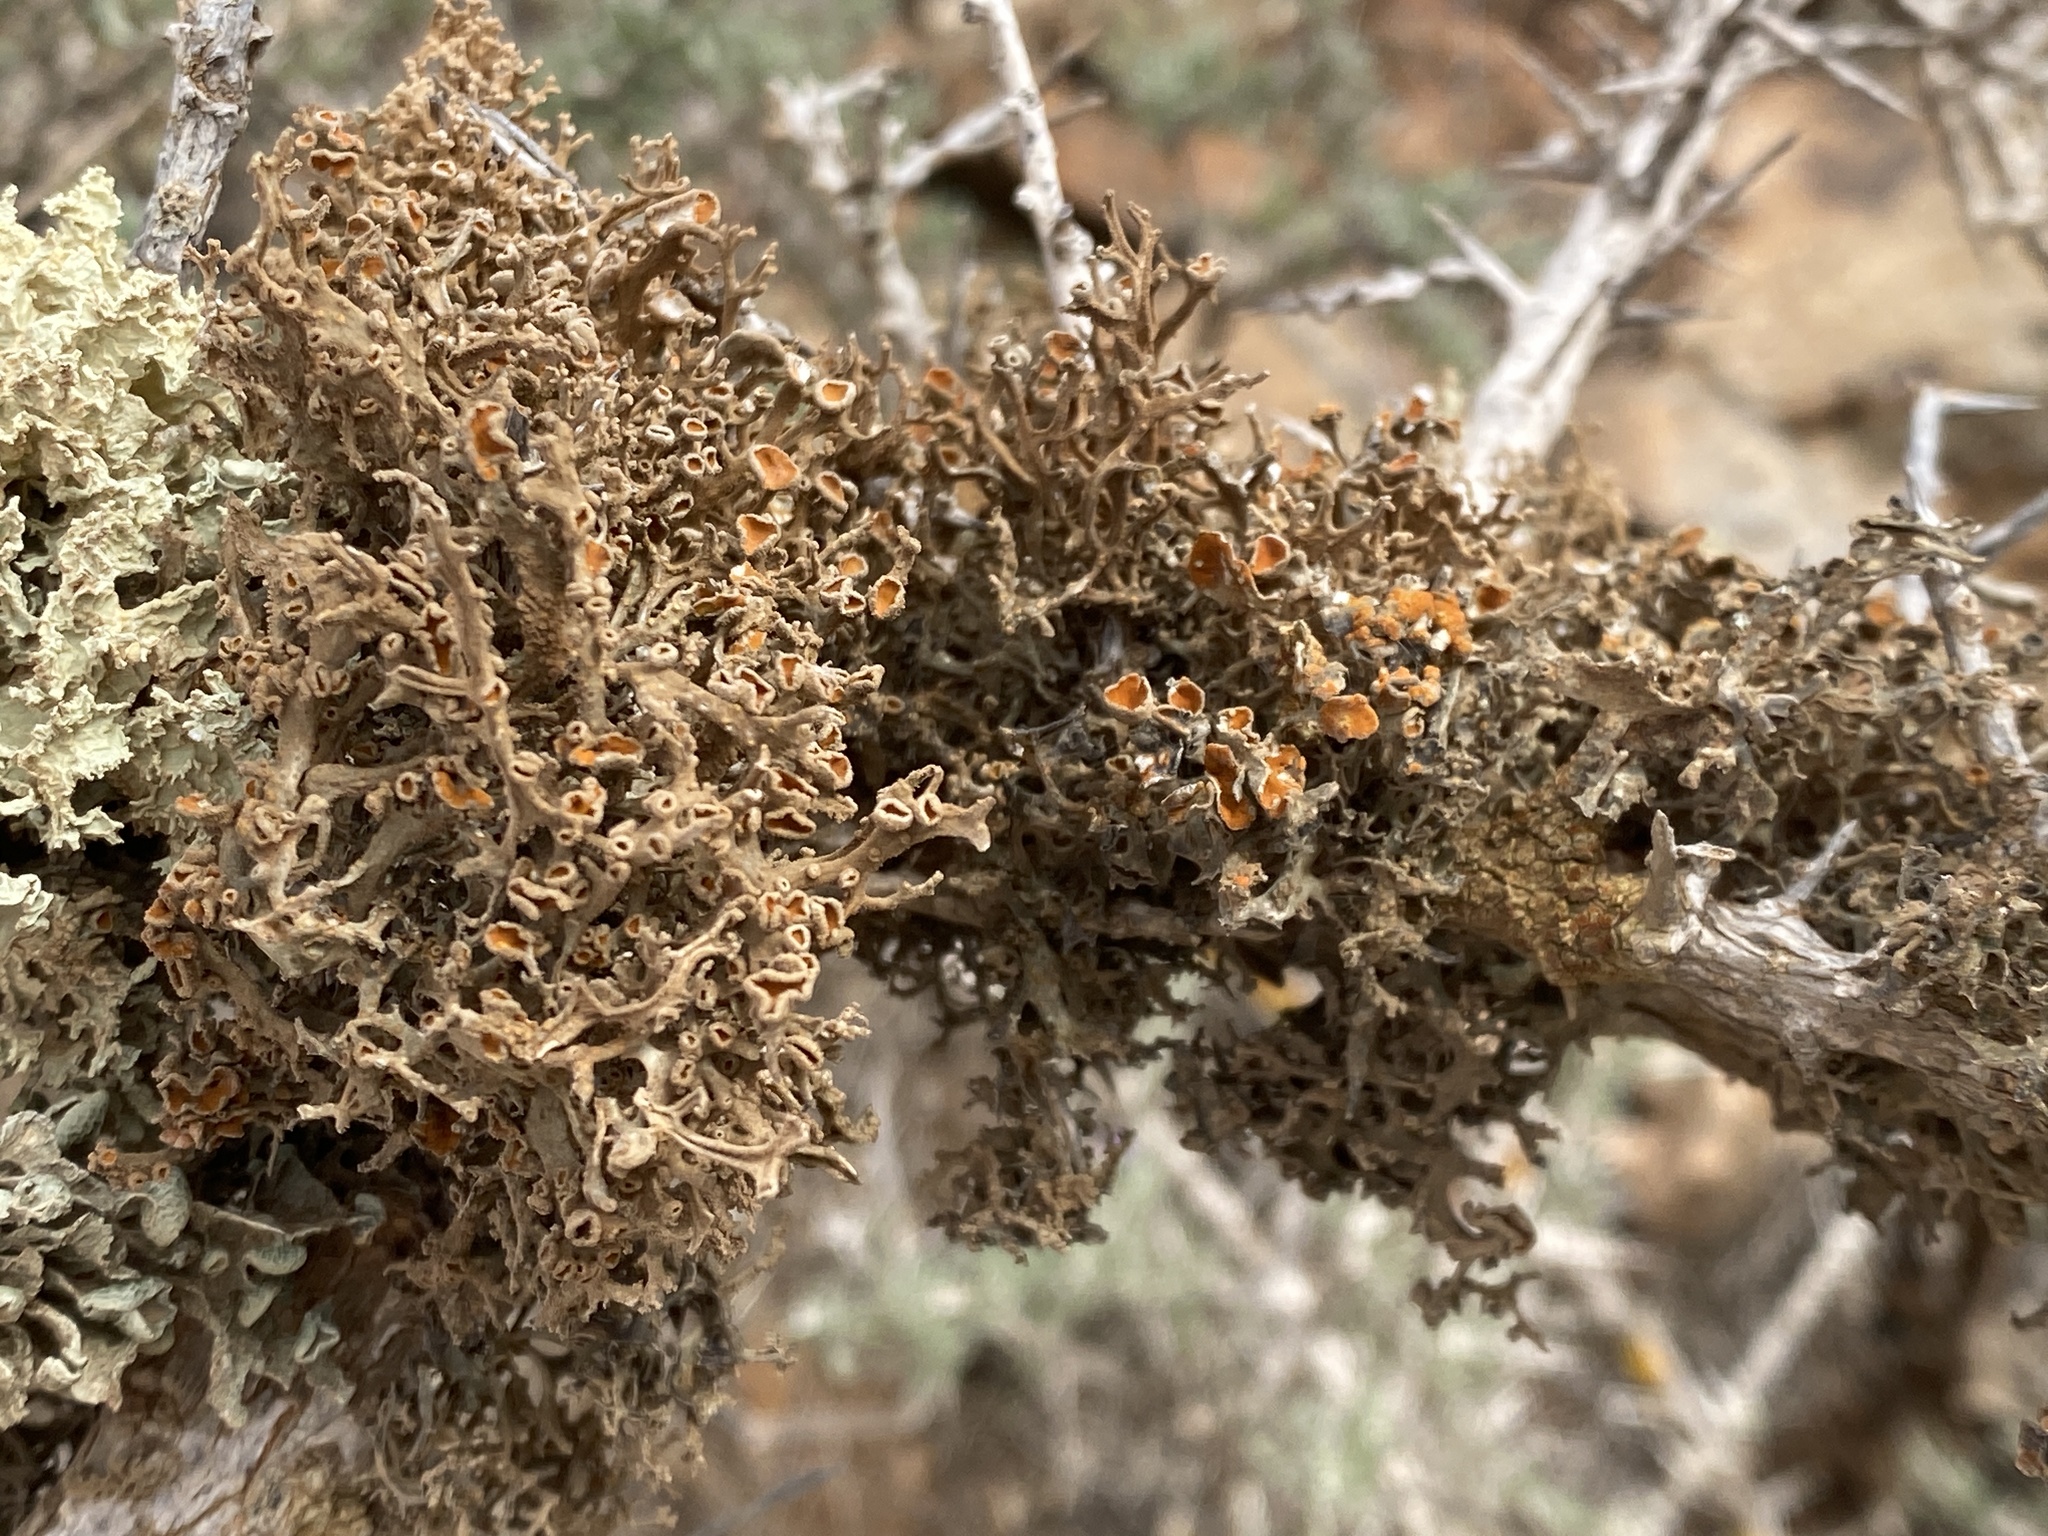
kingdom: Fungi
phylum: Ascomycota
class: Lecanoromycetes
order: Teloschistales
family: Teloschistaceae
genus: Seirophora
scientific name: Seirophora villosa
